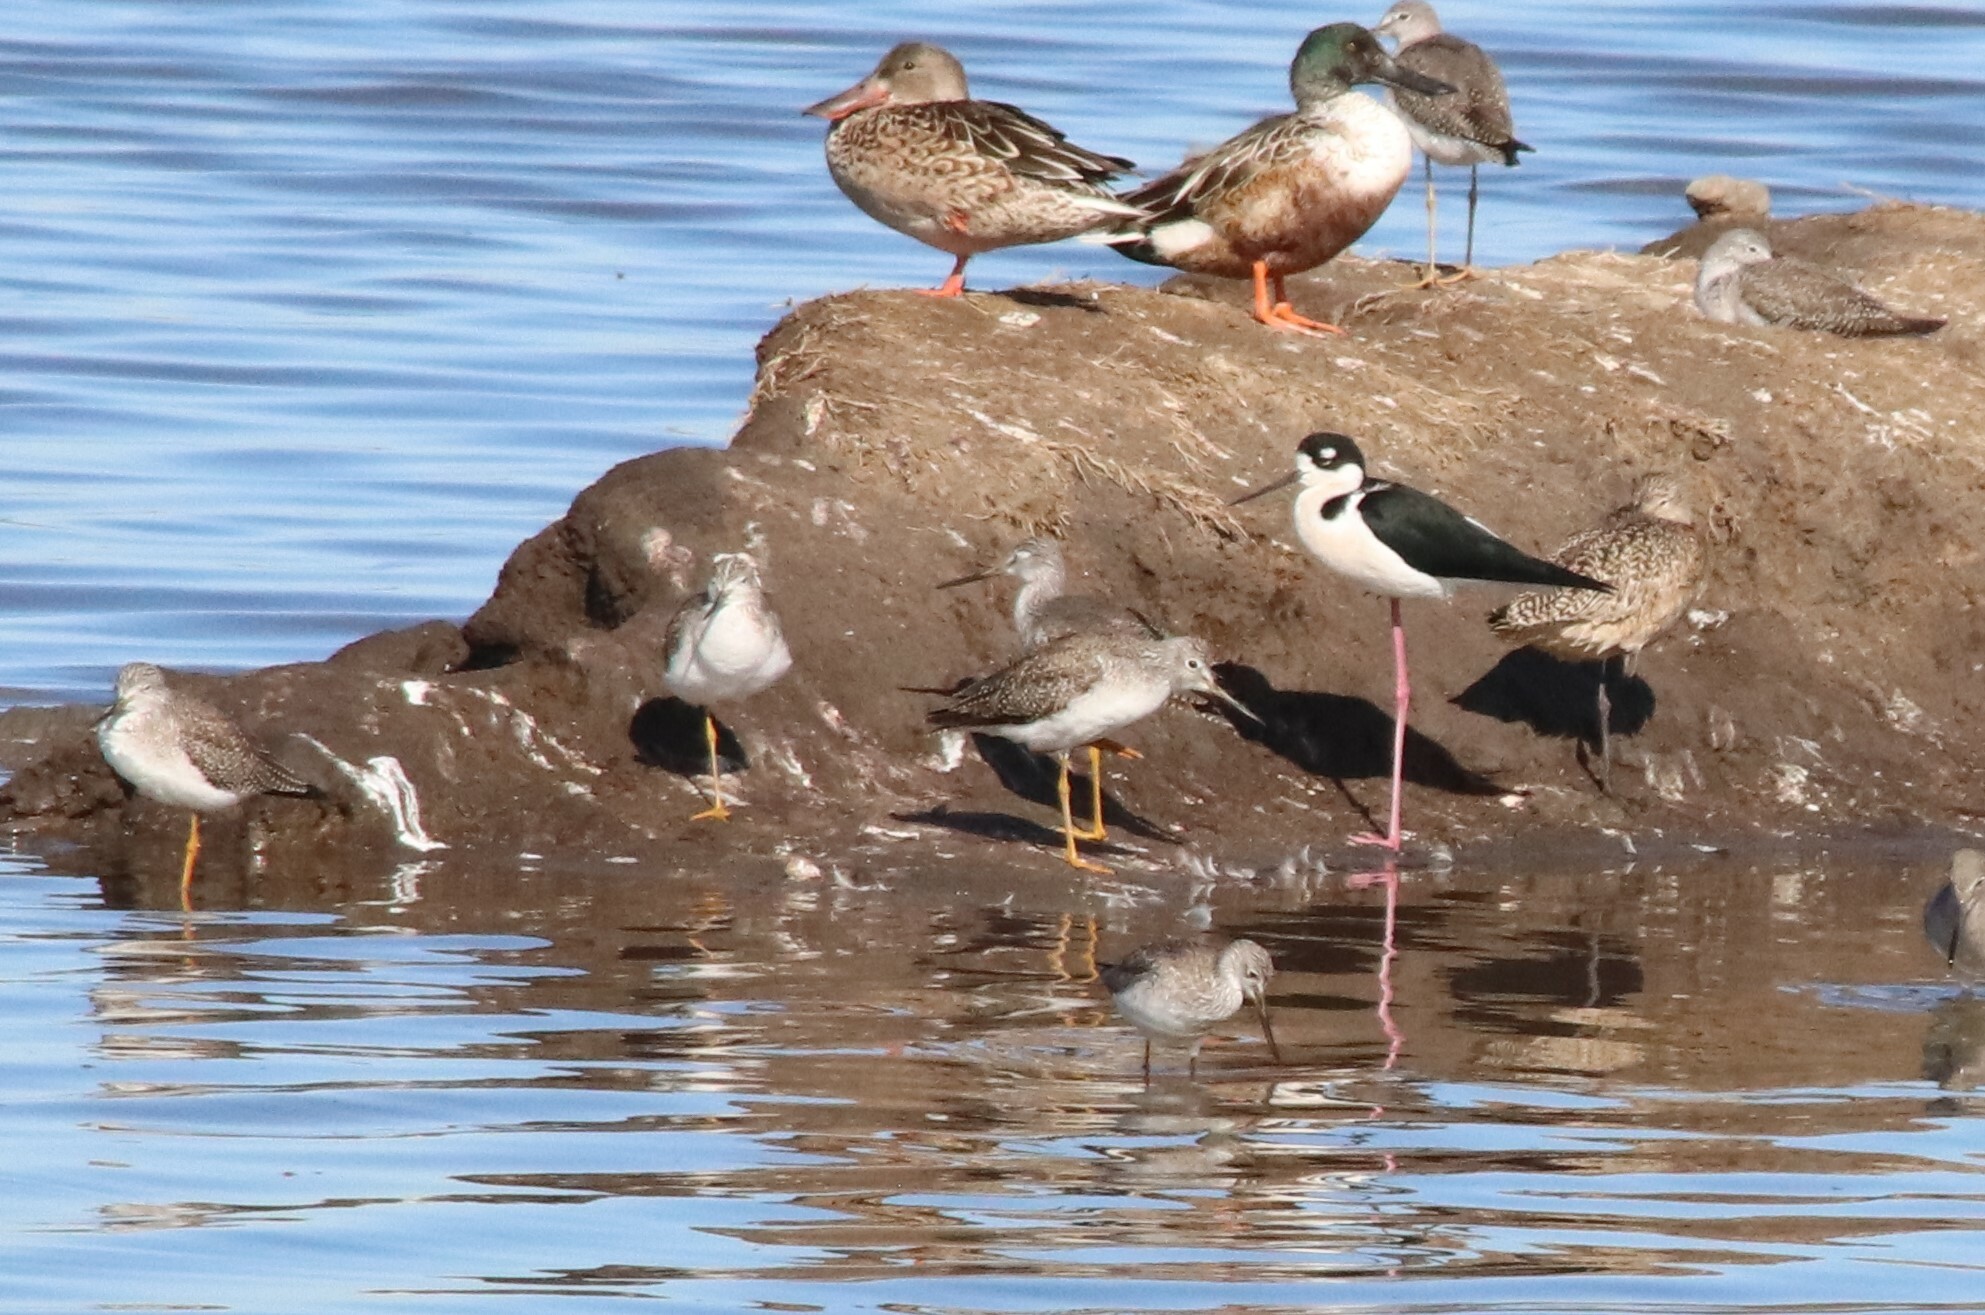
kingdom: Animalia
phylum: Chordata
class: Aves
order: Charadriiformes
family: Scolopacidae
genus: Tringa
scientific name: Tringa melanoleuca
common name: Greater yellowlegs
